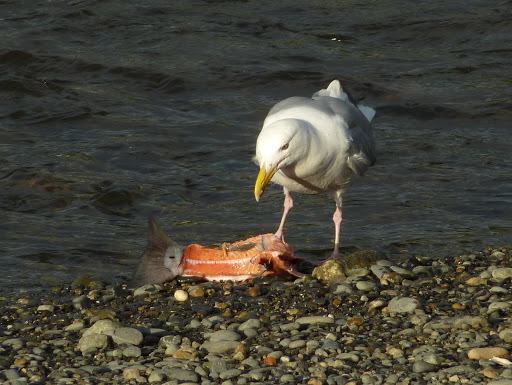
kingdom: Animalia
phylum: Chordata
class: Aves
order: Charadriiformes
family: Laridae
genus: Larus
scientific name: Larus glaucescens
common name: Glaucous-winged gull
